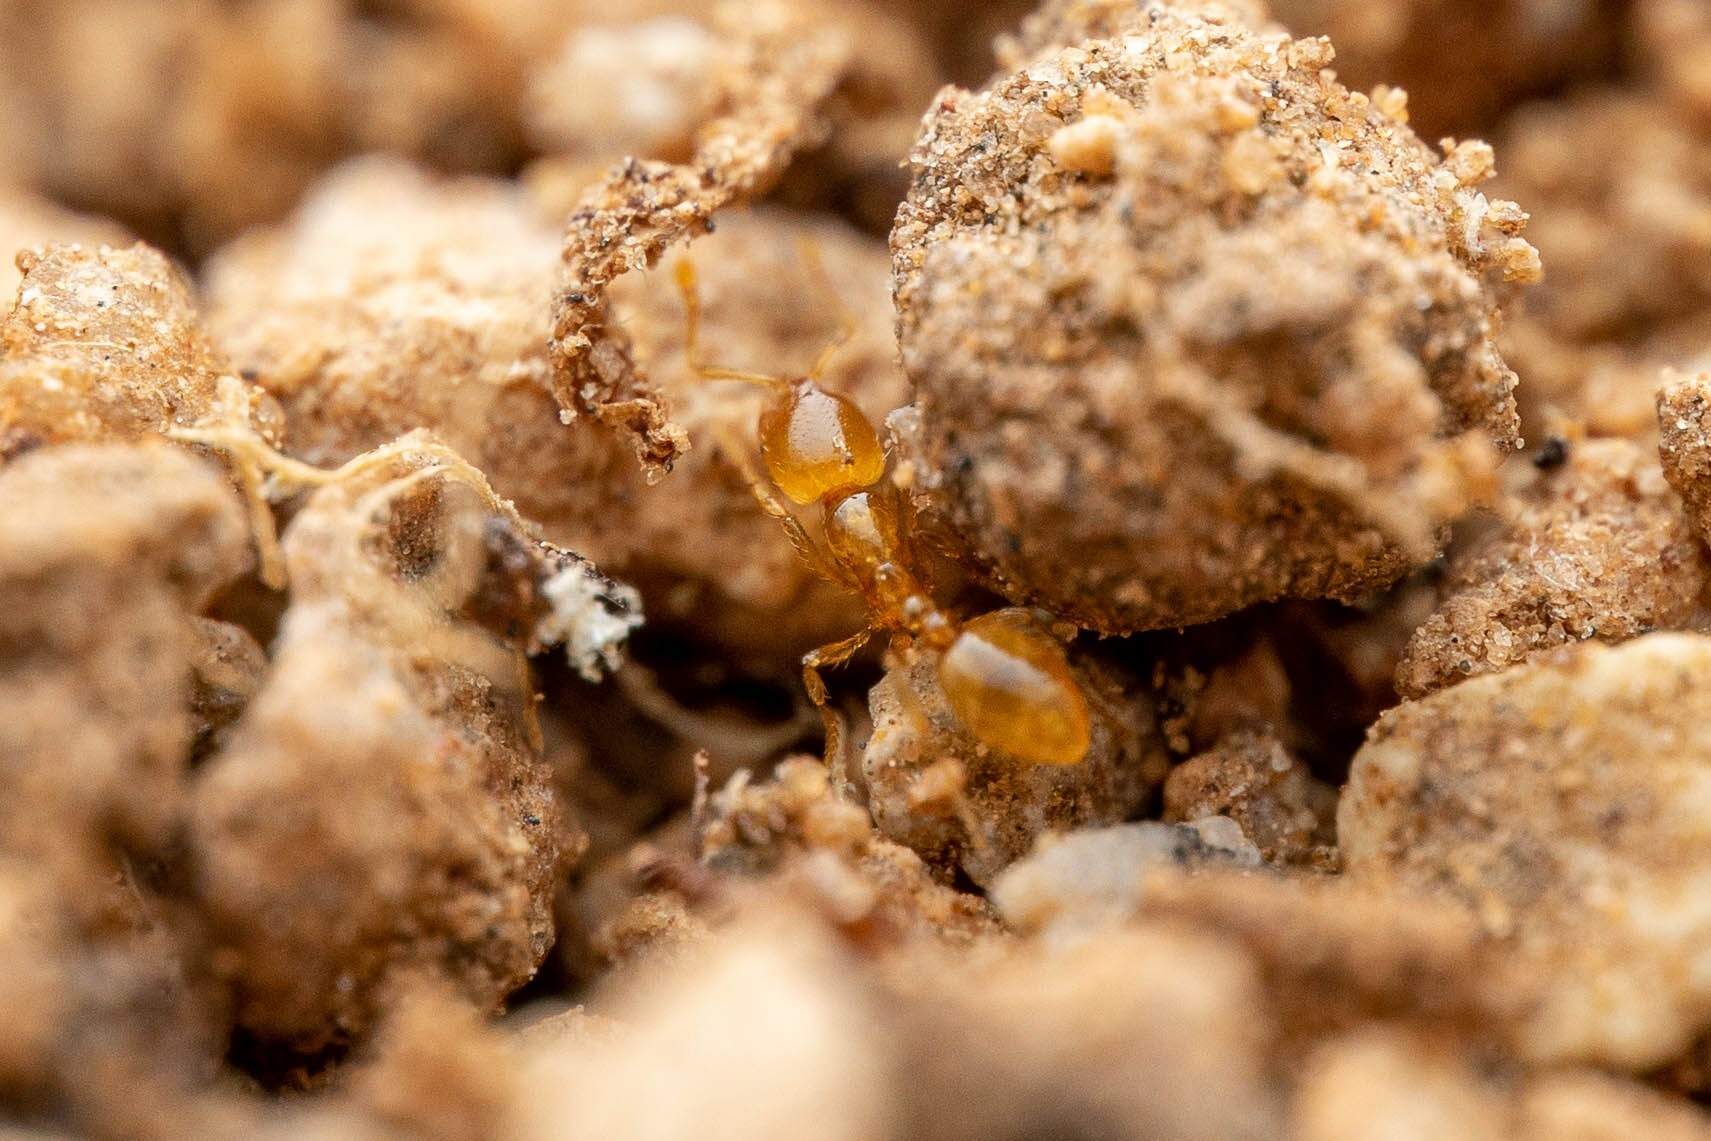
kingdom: Animalia
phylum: Arthropoda
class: Insecta
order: Hymenoptera
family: Formicidae
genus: Solenopsis
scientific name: Solenopsis
